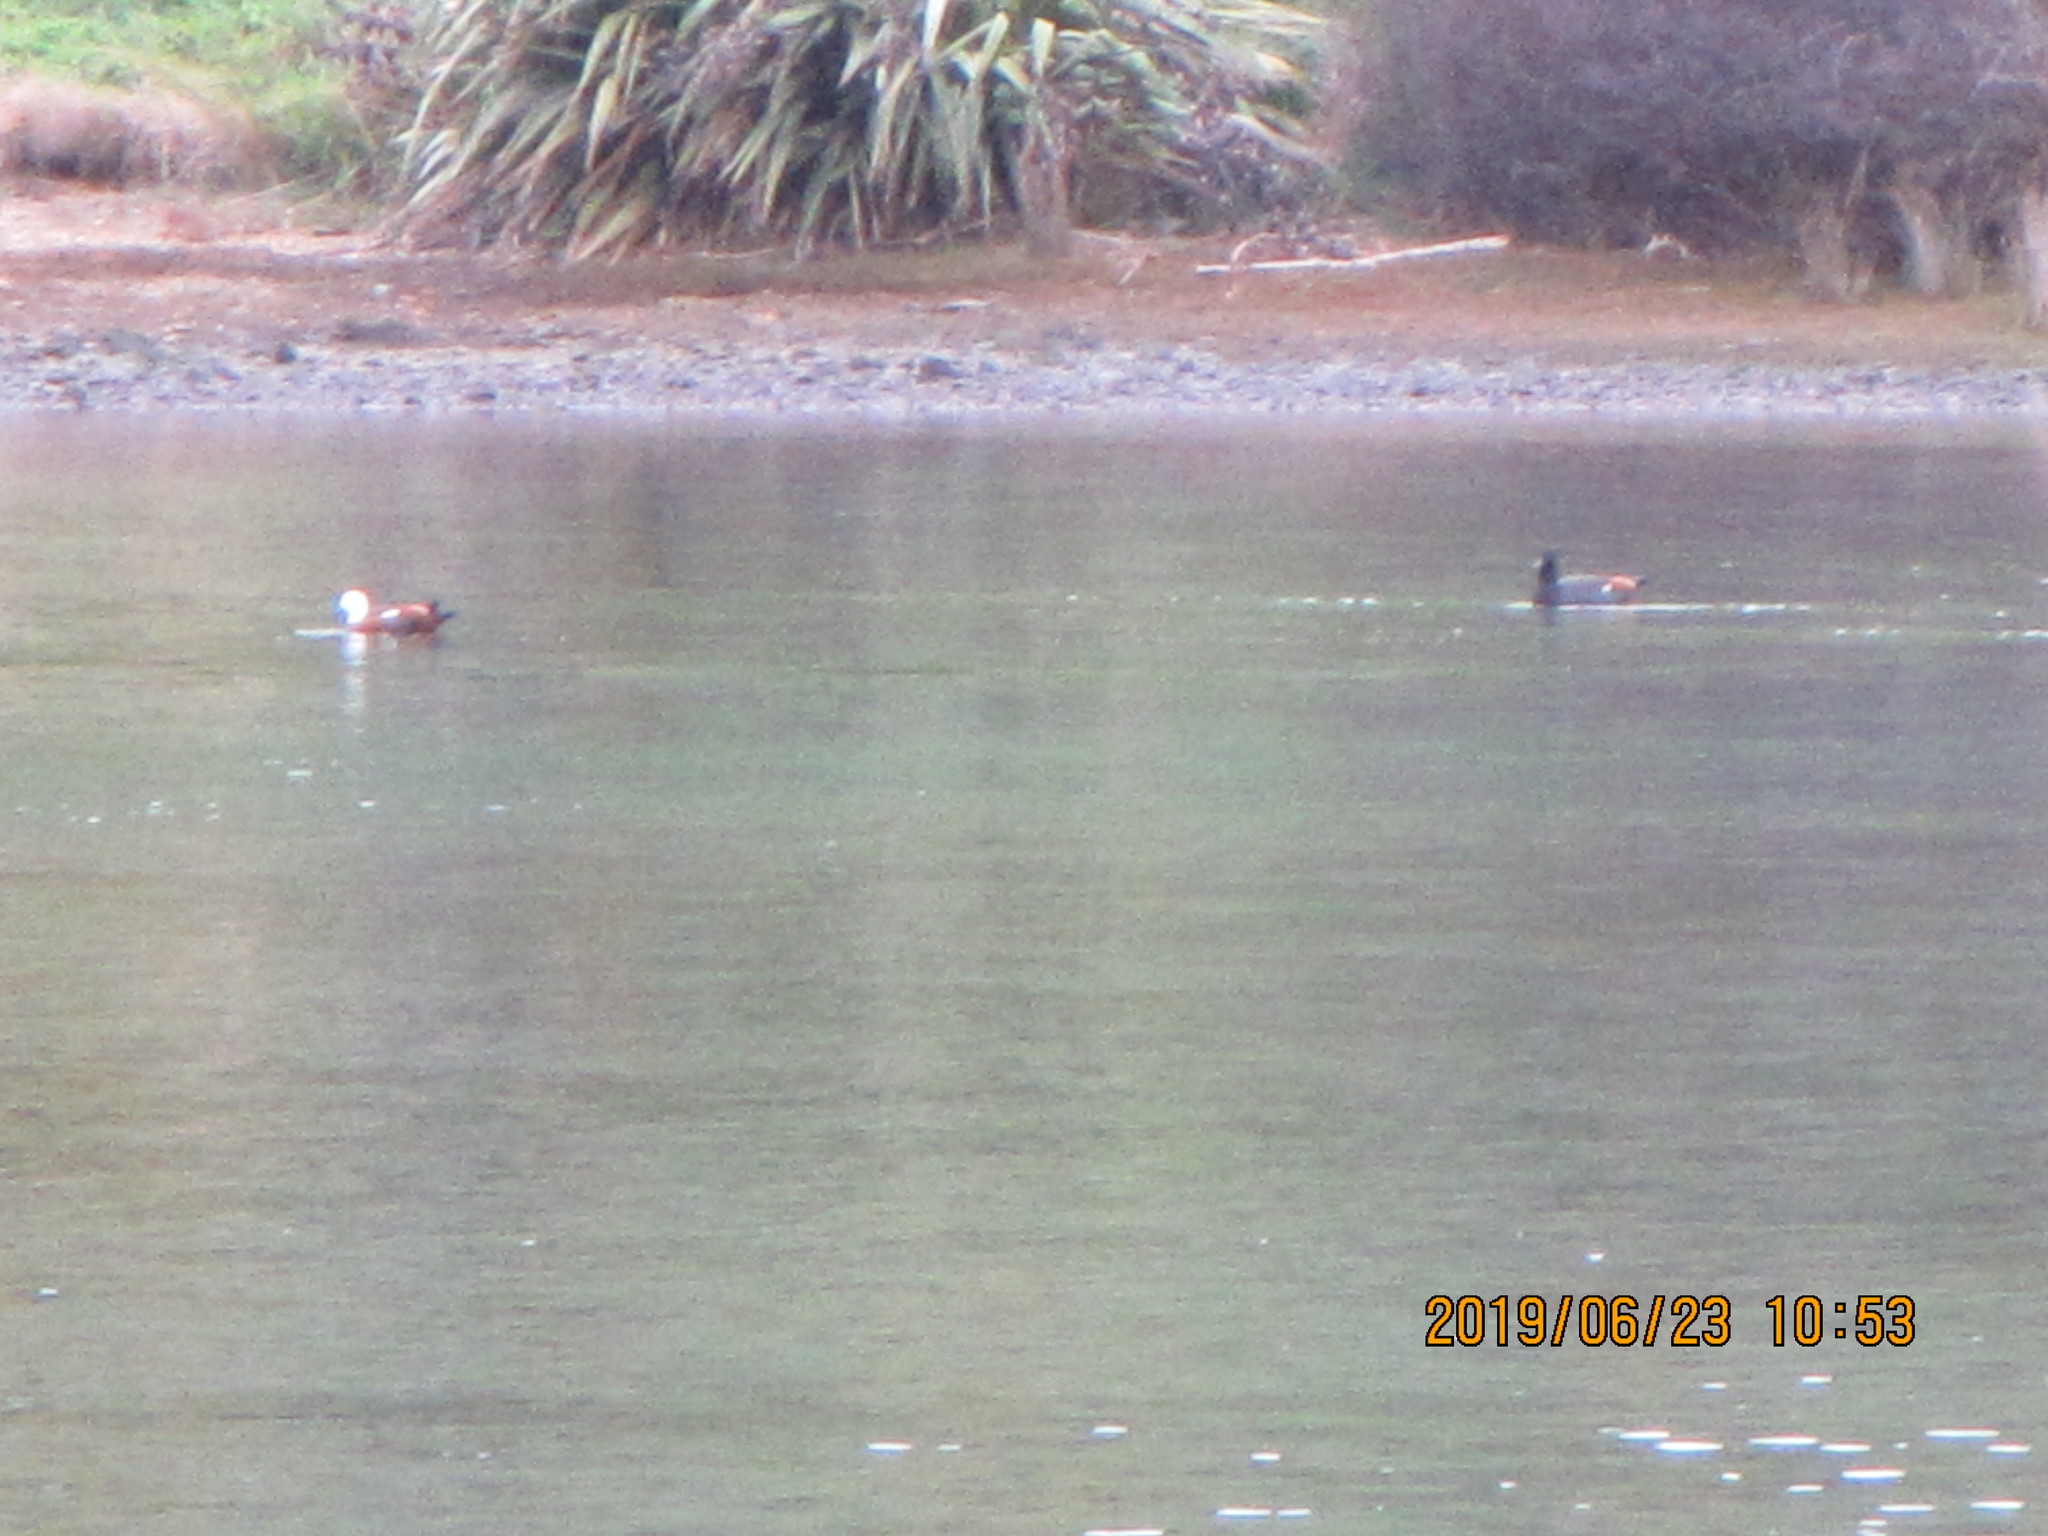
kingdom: Animalia
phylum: Chordata
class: Aves
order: Anseriformes
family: Anatidae
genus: Tadorna
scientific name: Tadorna variegata
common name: Paradise shelduck
